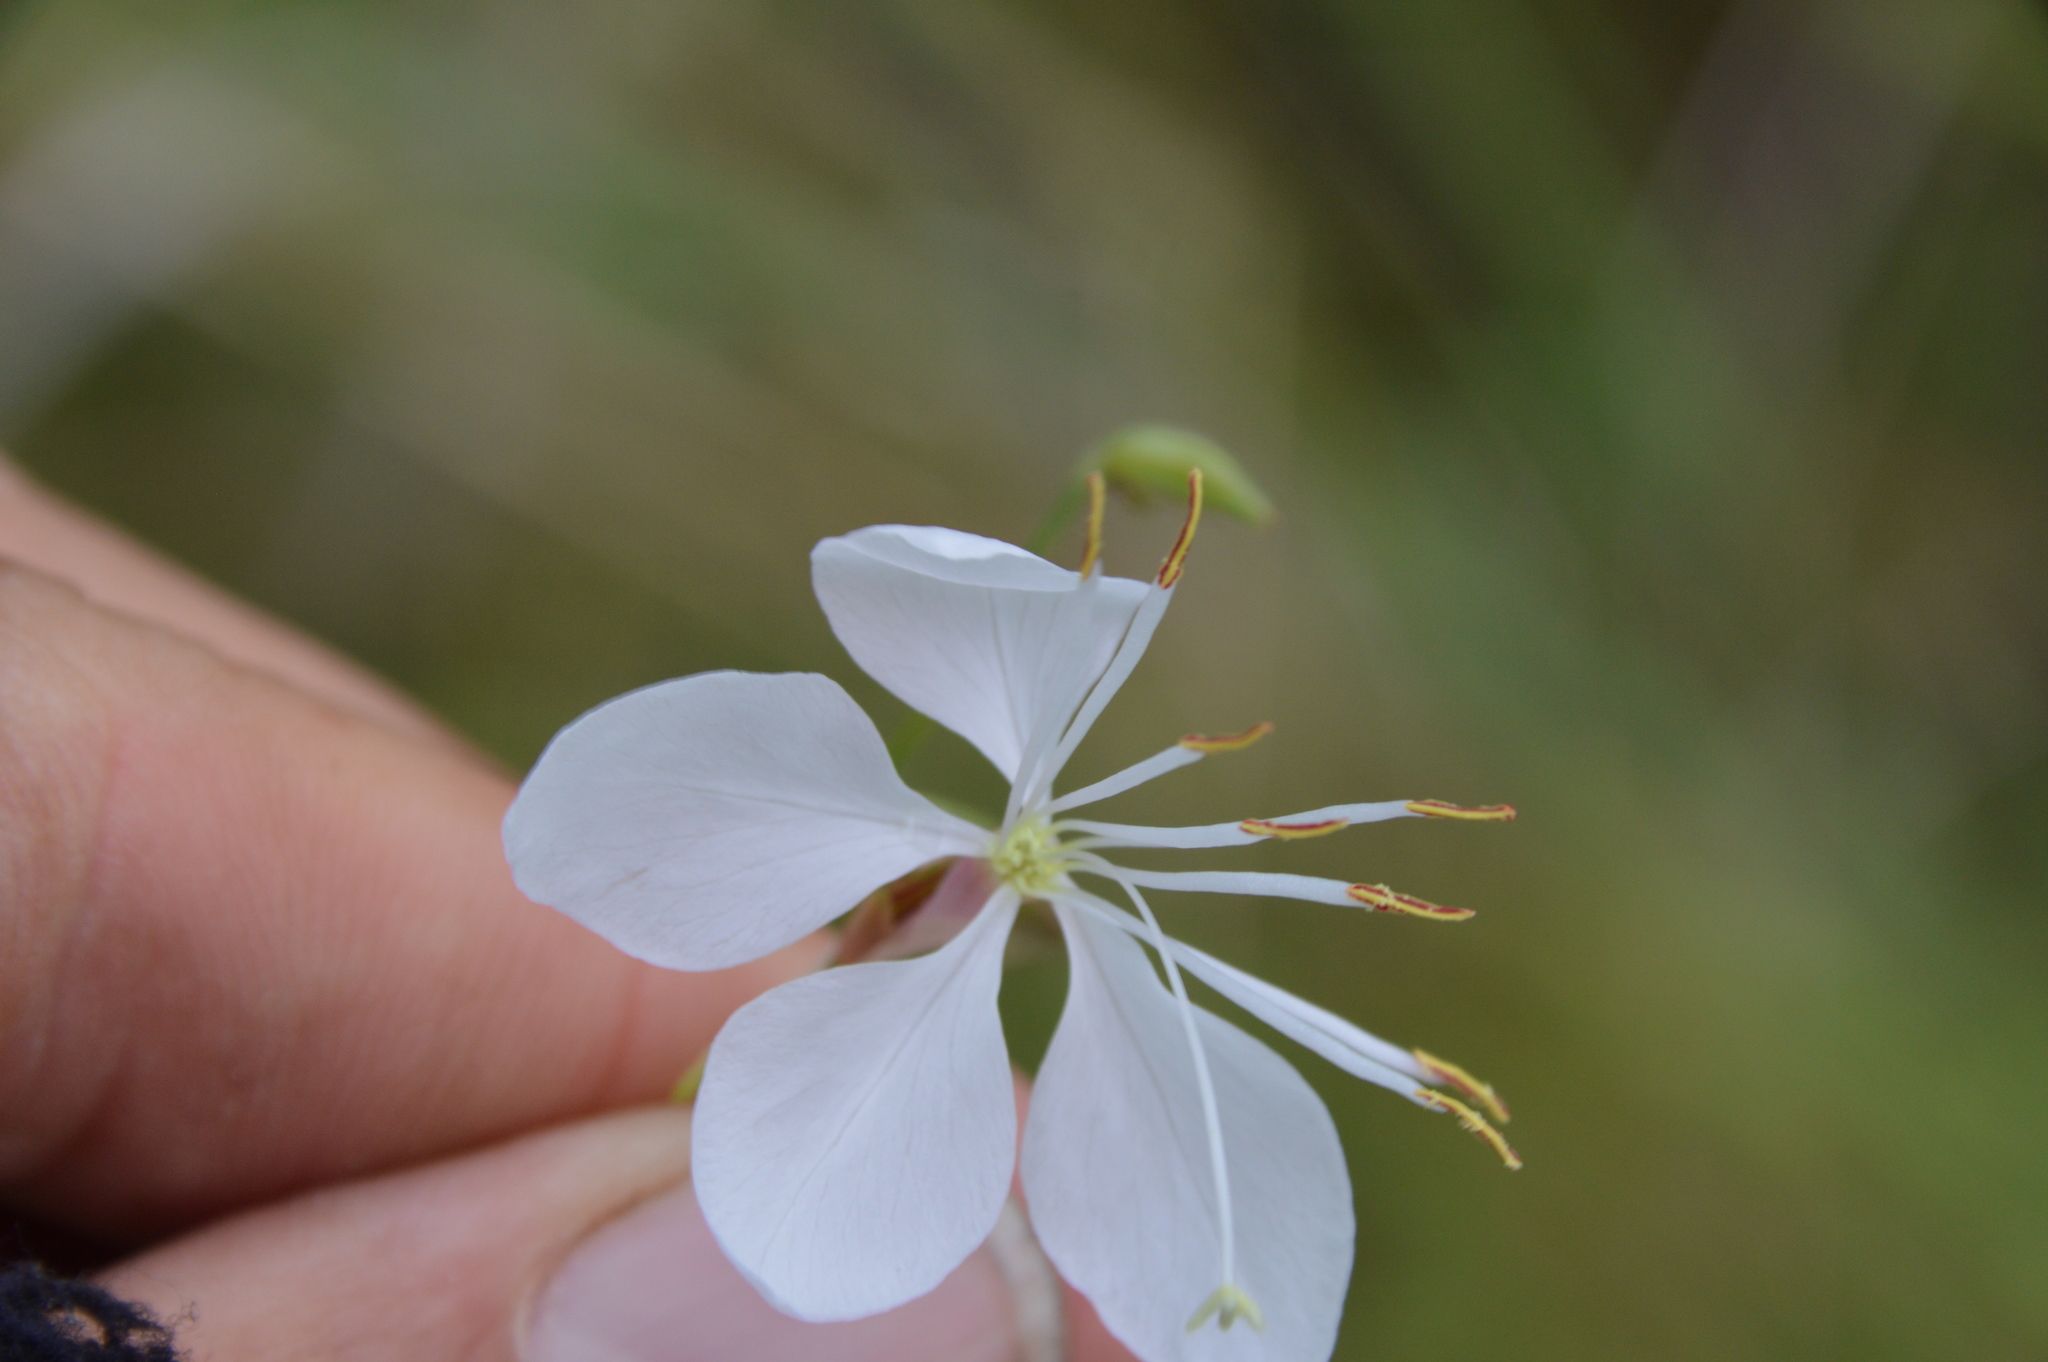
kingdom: Plantae
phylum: Tracheophyta
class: Magnoliopsida
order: Myrtales
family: Onagraceae
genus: Oenothera
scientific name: Oenothera lindheimeri
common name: Lindheimer's beeblossom
